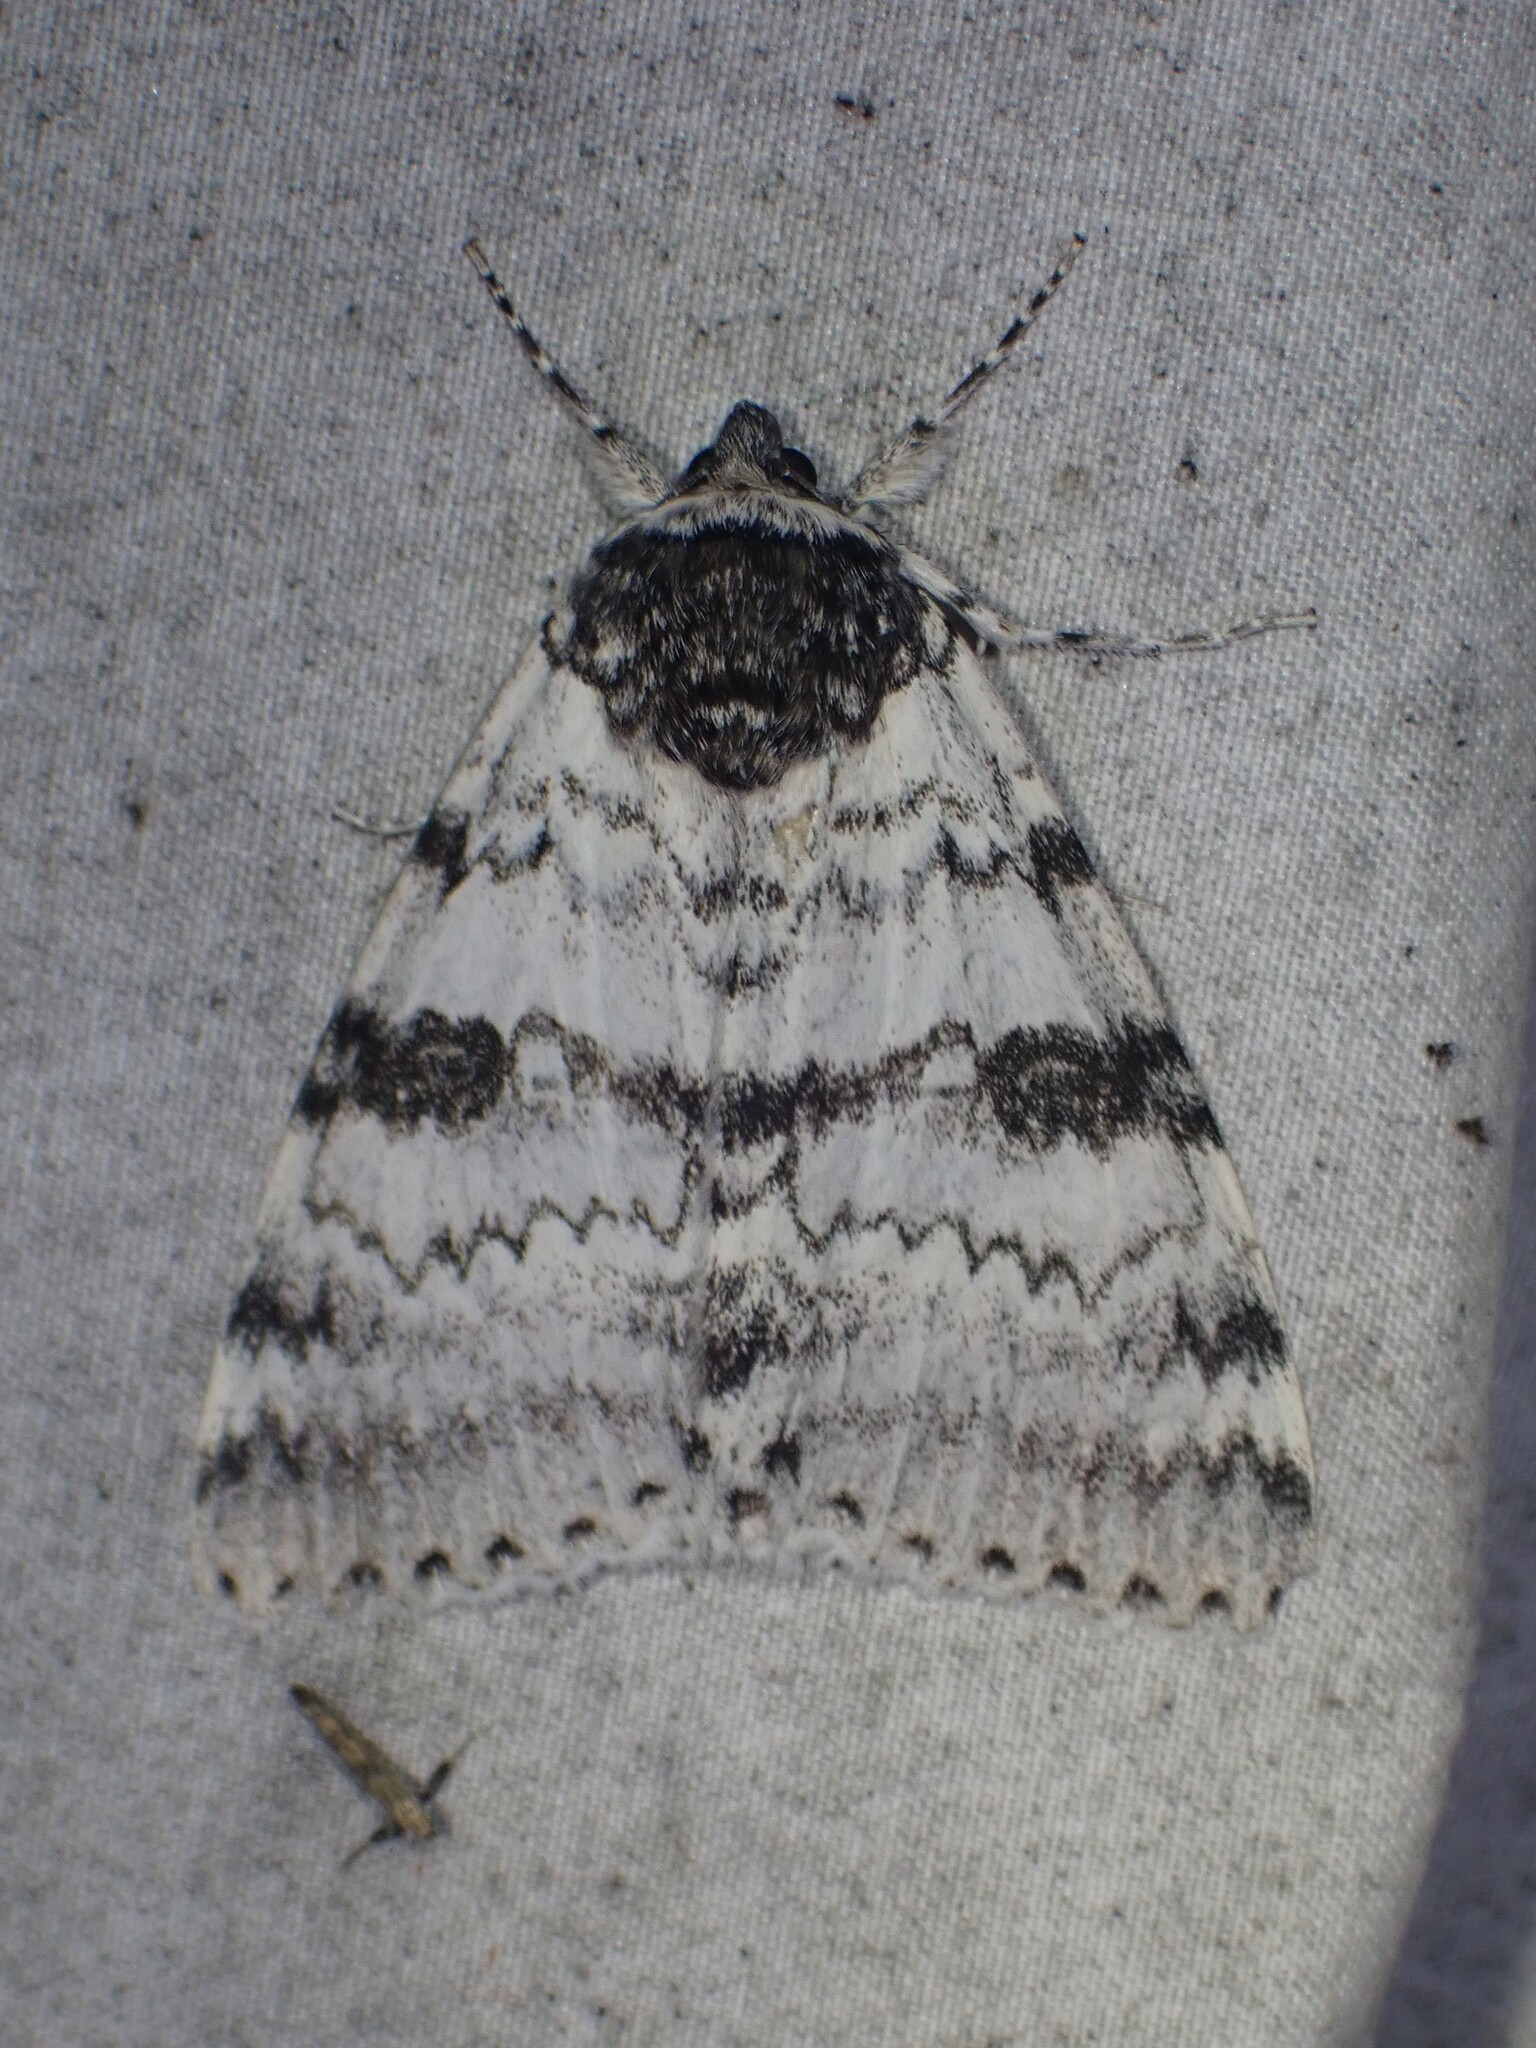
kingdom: Animalia
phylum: Arthropoda
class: Insecta
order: Lepidoptera
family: Erebidae
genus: Catocala
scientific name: Catocala relicta
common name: White underwing
